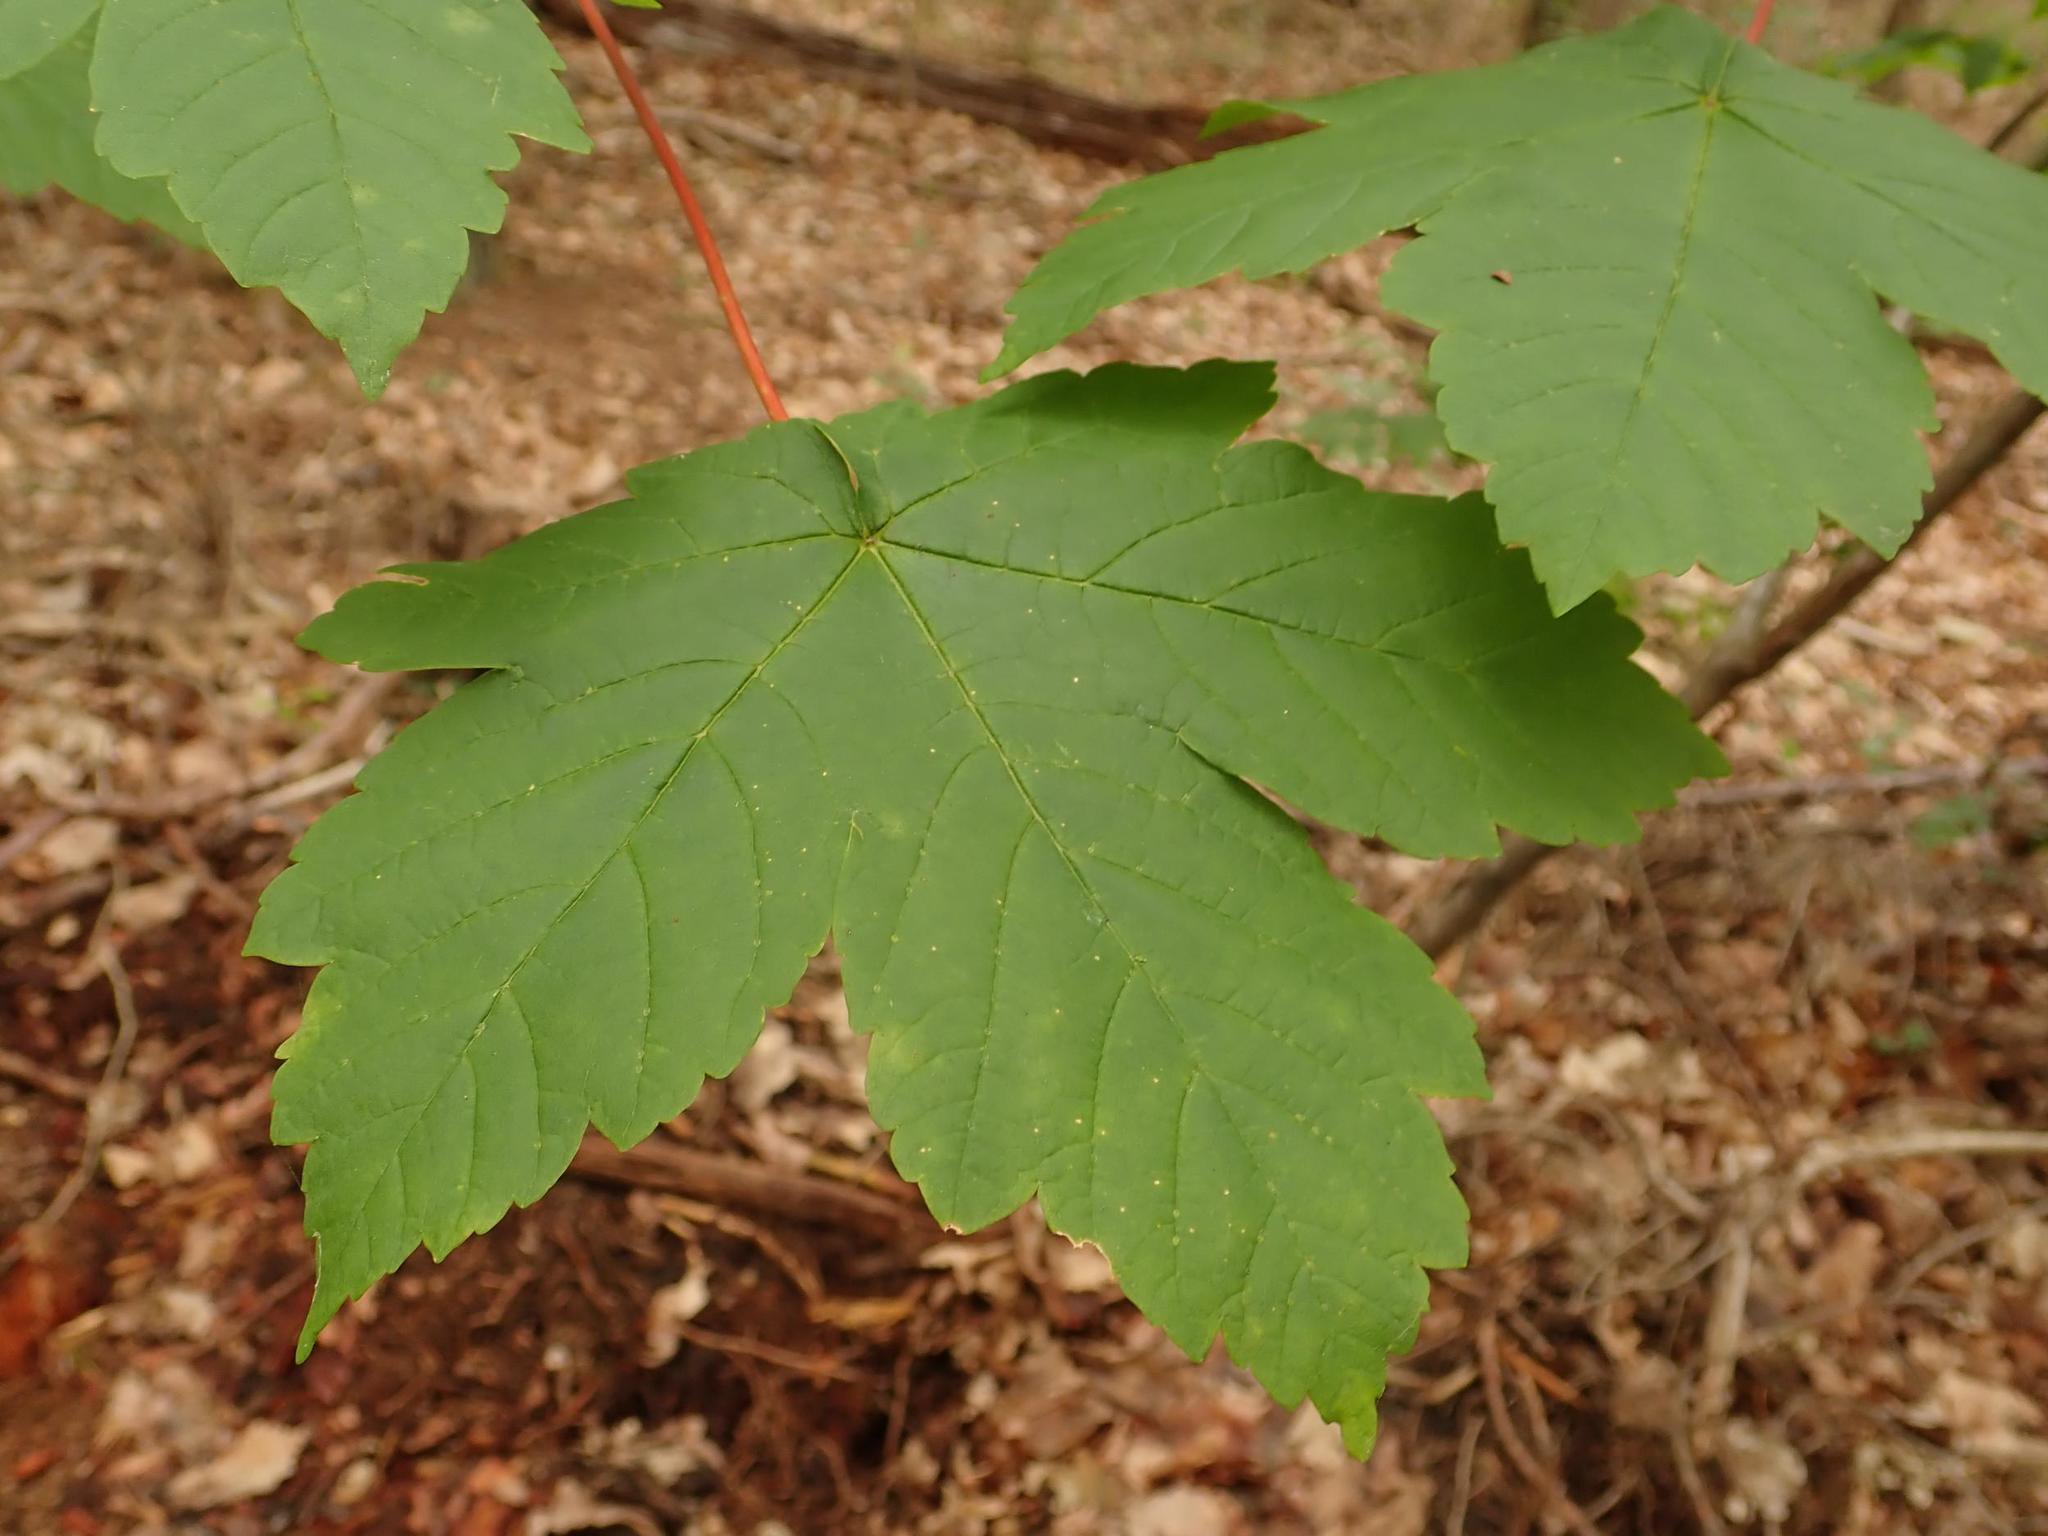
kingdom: Plantae
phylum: Tracheophyta
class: Magnoliopsida
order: Sapindales
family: Sapindaceae
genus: Acer
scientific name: Acer pseudoplatanus
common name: Sycamore
